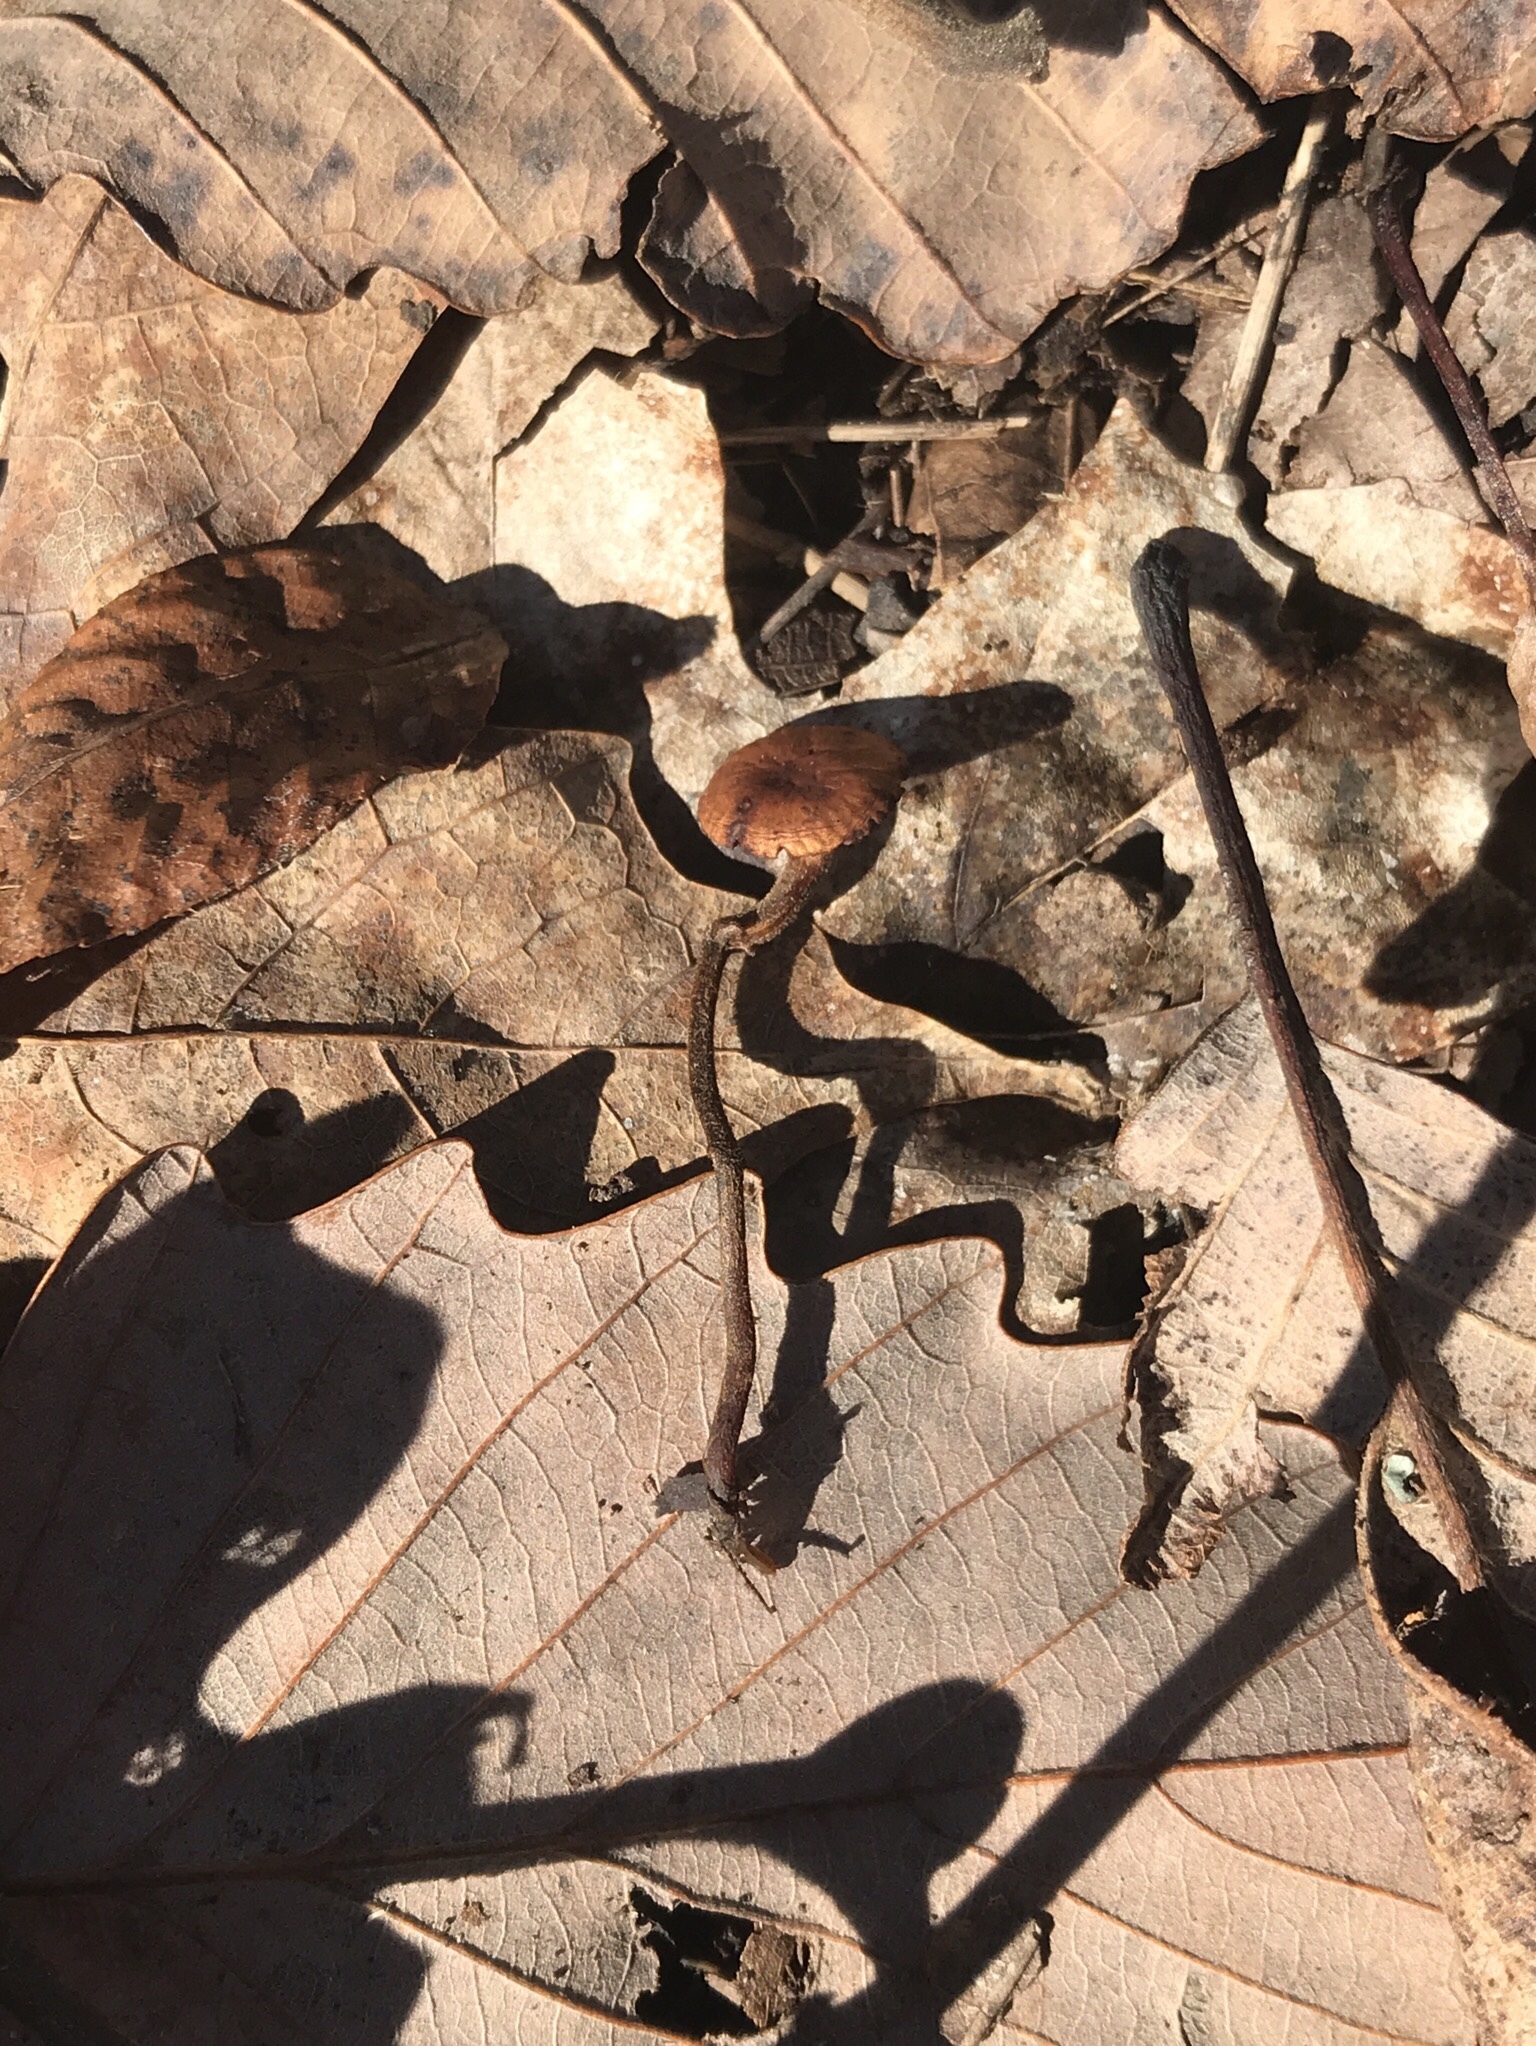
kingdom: Fungi
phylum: Basidiomycota
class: Agaricomycetes
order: Agaricales
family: Physalacriaceae
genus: Rhizomarasmius
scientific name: Rhizomarasmius pyrrhocephalus
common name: Hairy long stem marasmius
